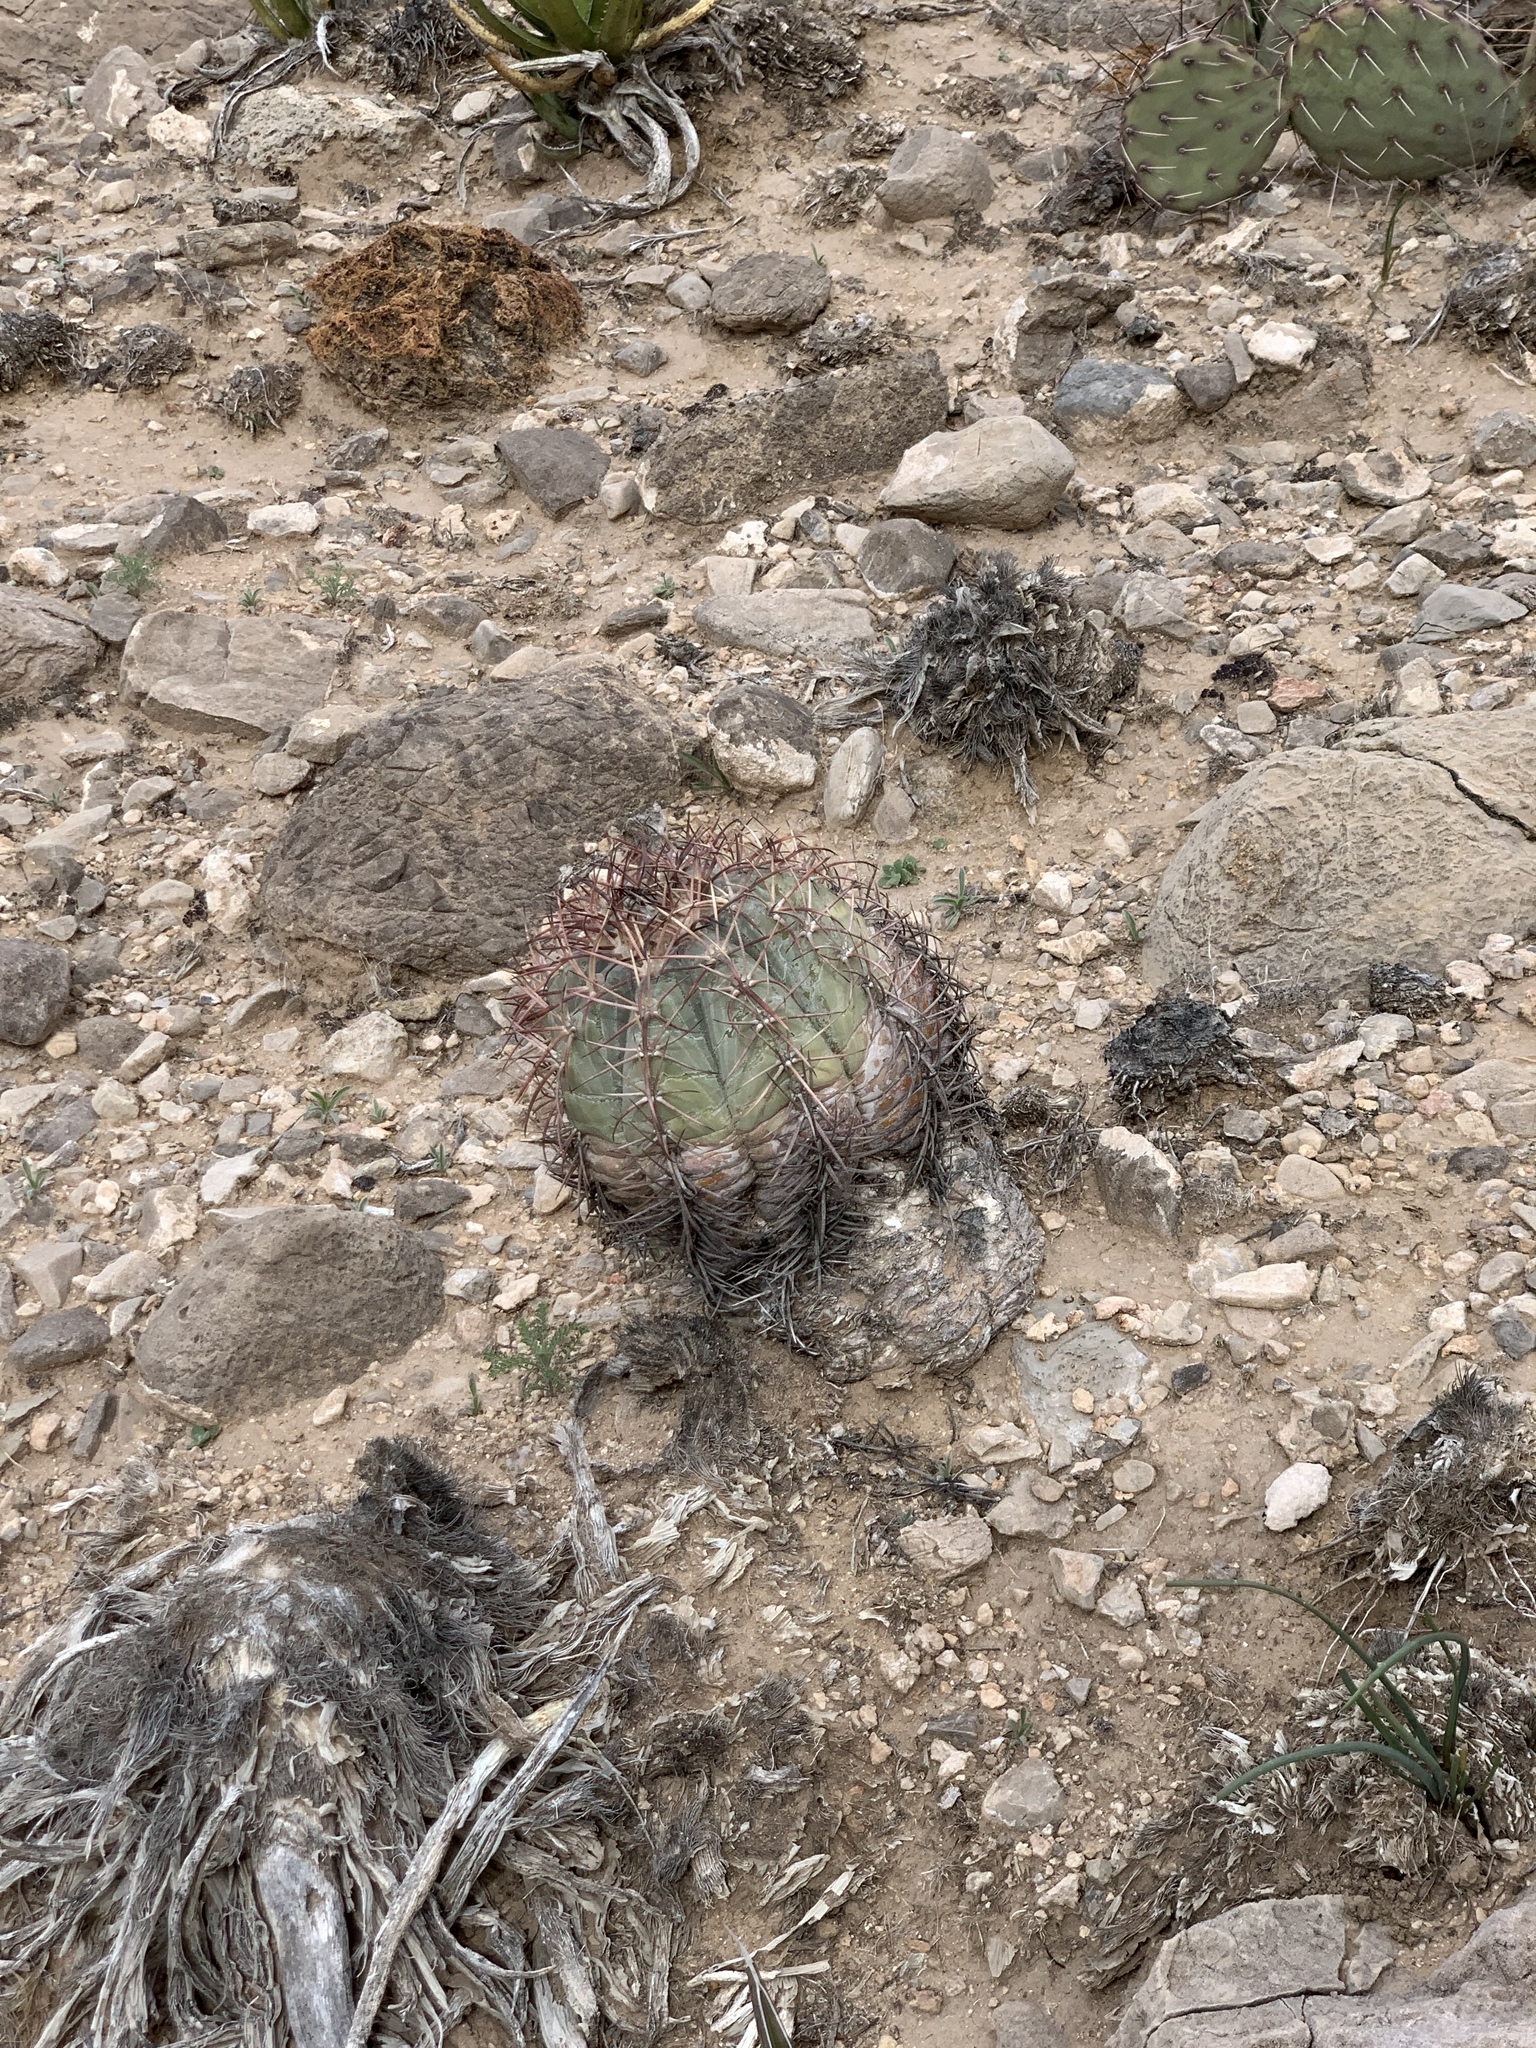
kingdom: Plantae
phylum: Tracheophyta
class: Magnoliopsida
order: Caryophyllales
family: Cactaceae
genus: Echinocactus
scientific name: Echinocactus horizonthalonius
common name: Devilshead
